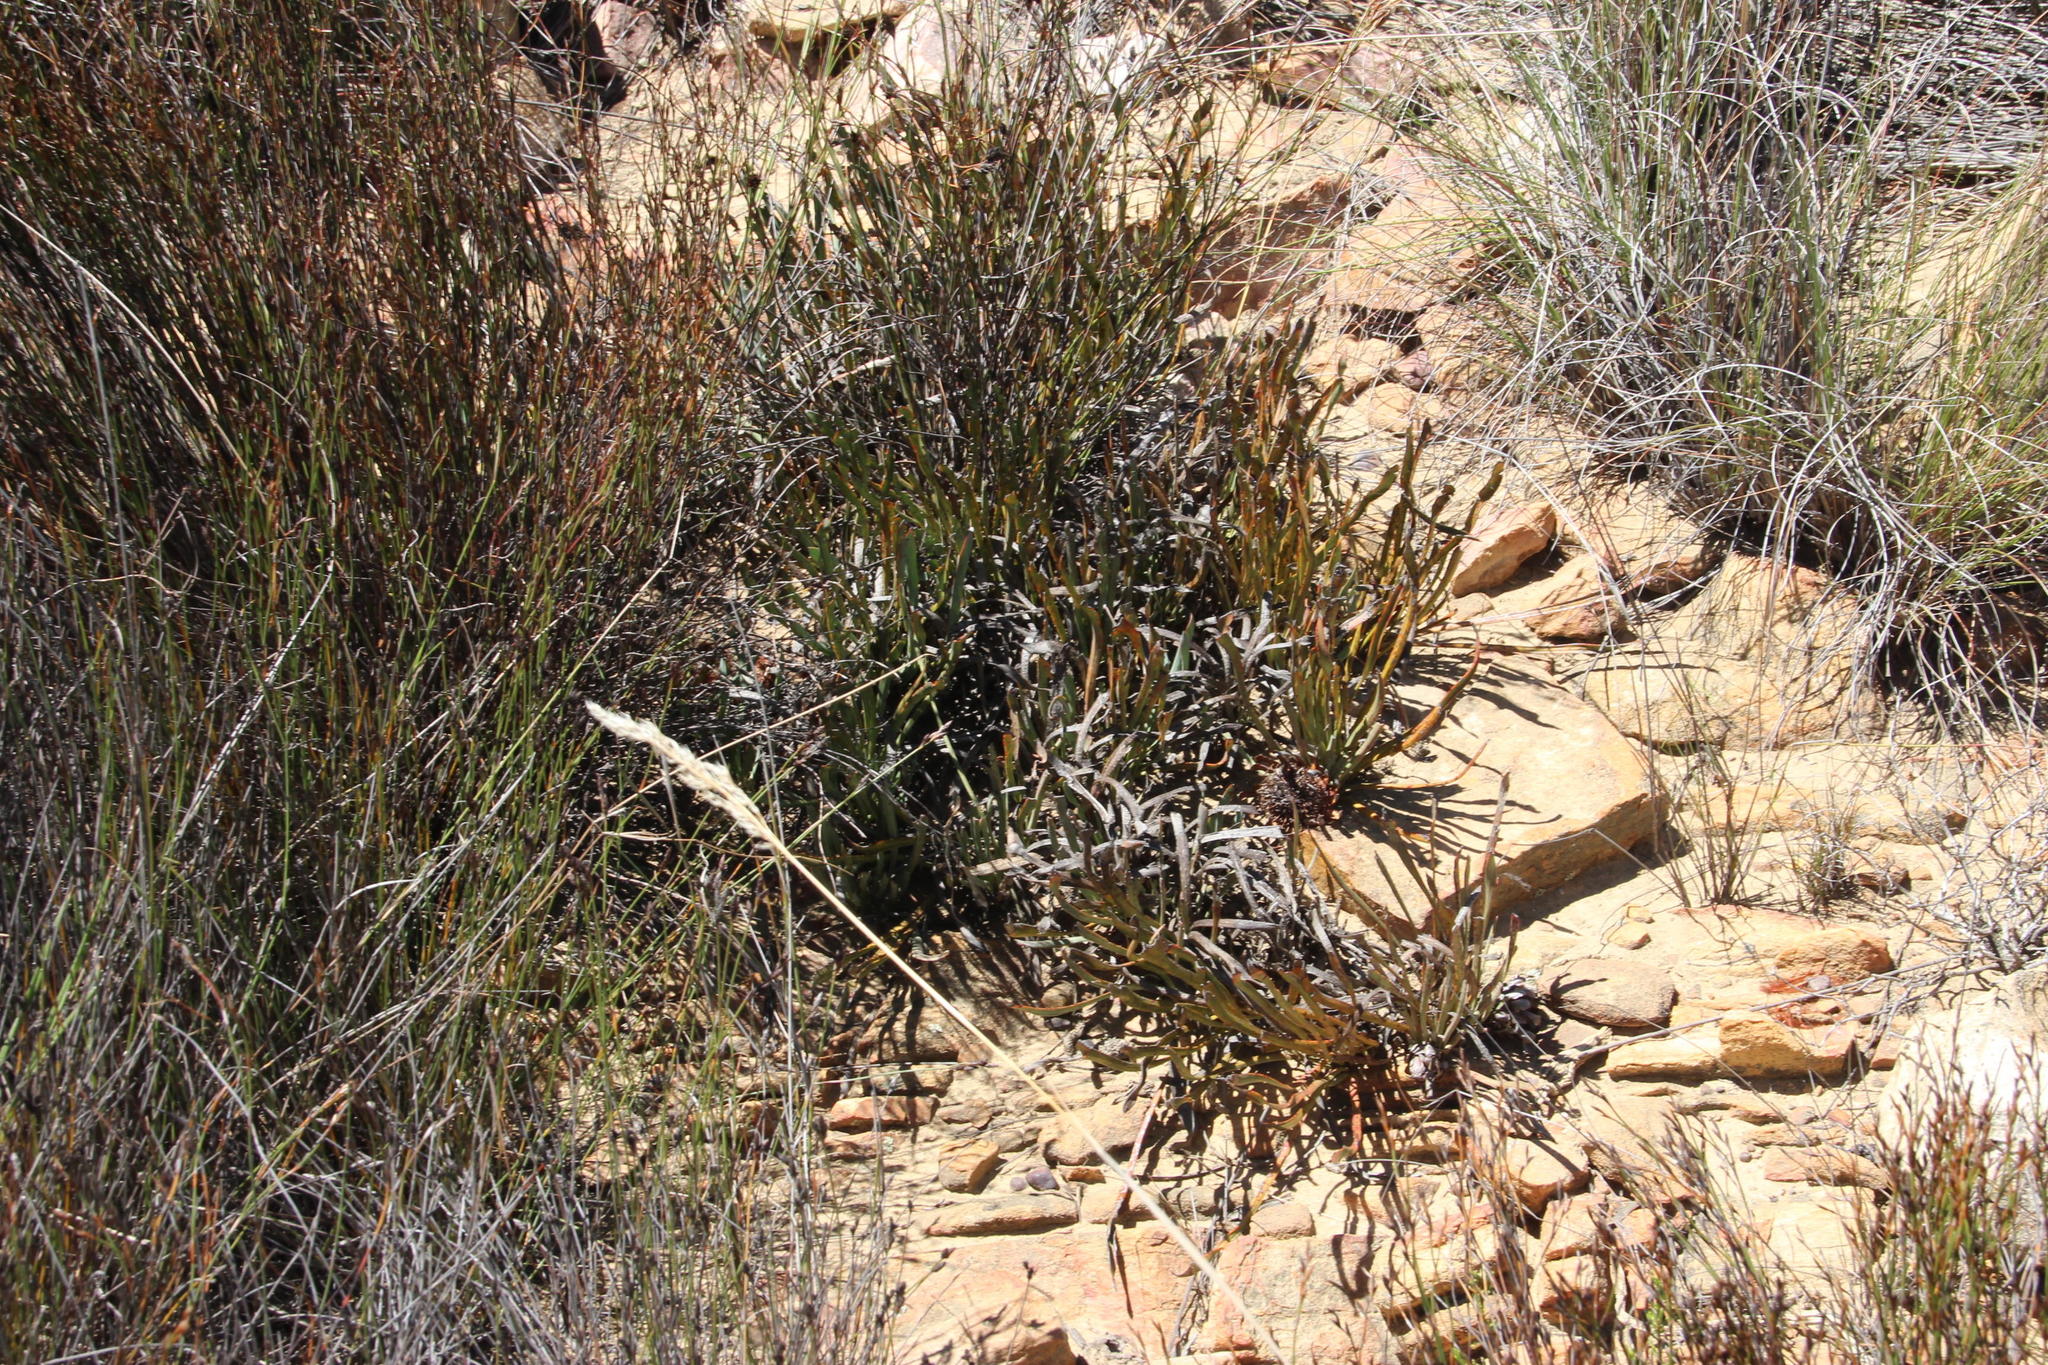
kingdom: Plantae
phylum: Tracheophyta
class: Magnoliopsida
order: Proteales
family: Proteaceae
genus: Protea
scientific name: Protea revoluta
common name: Rolled-leaf sugarbush
